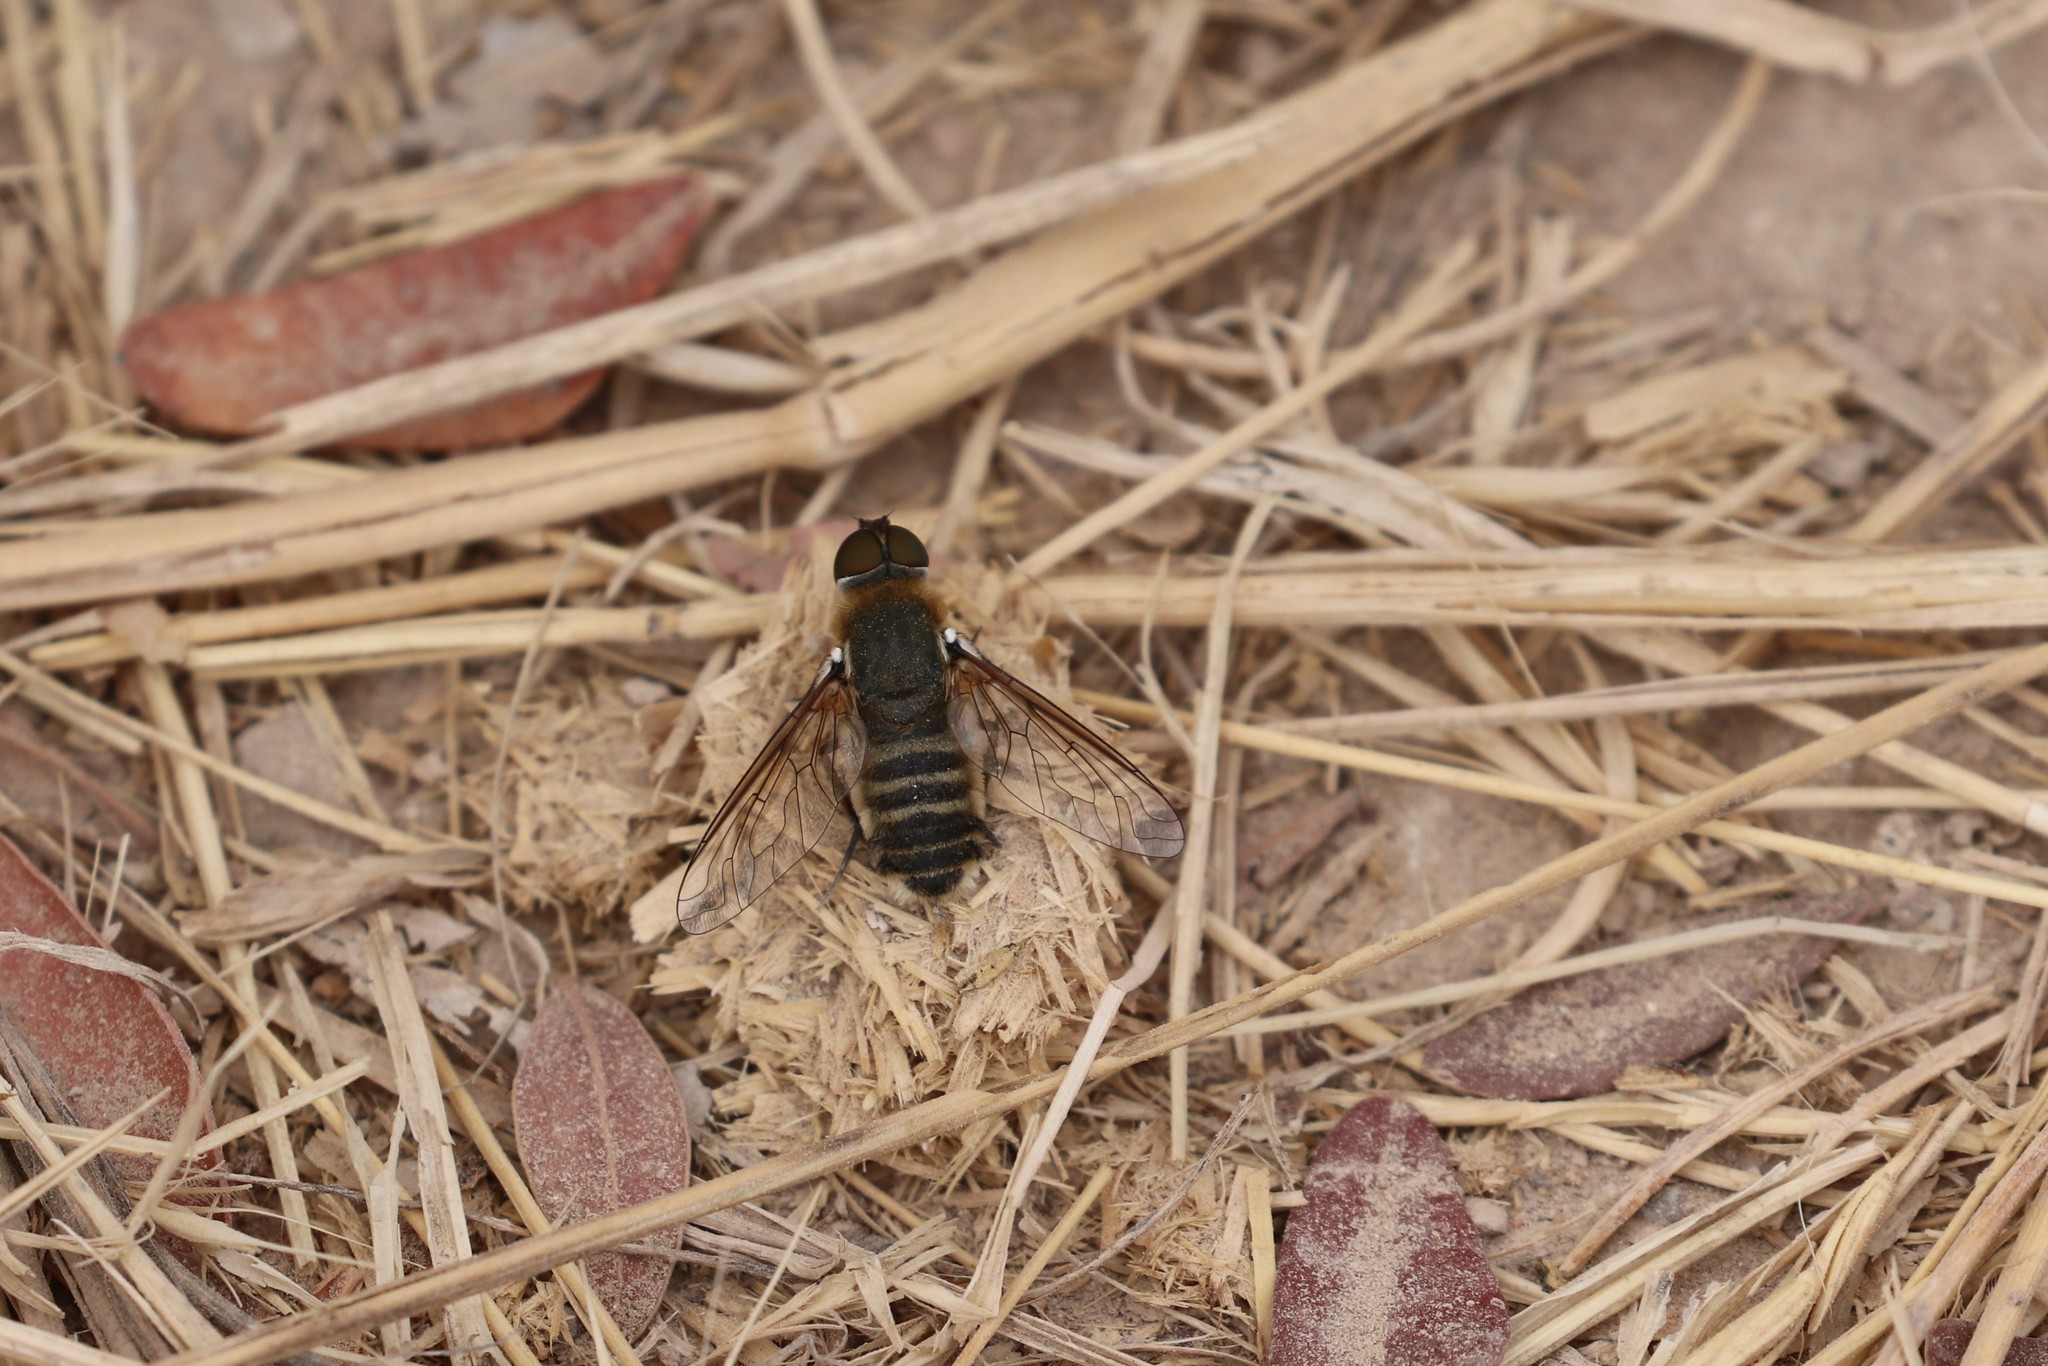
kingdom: Animalia
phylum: Arthropoda
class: Insecta
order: Diptera
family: Bombyliidae
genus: Villa
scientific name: Villa modesta
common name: Dune villa
